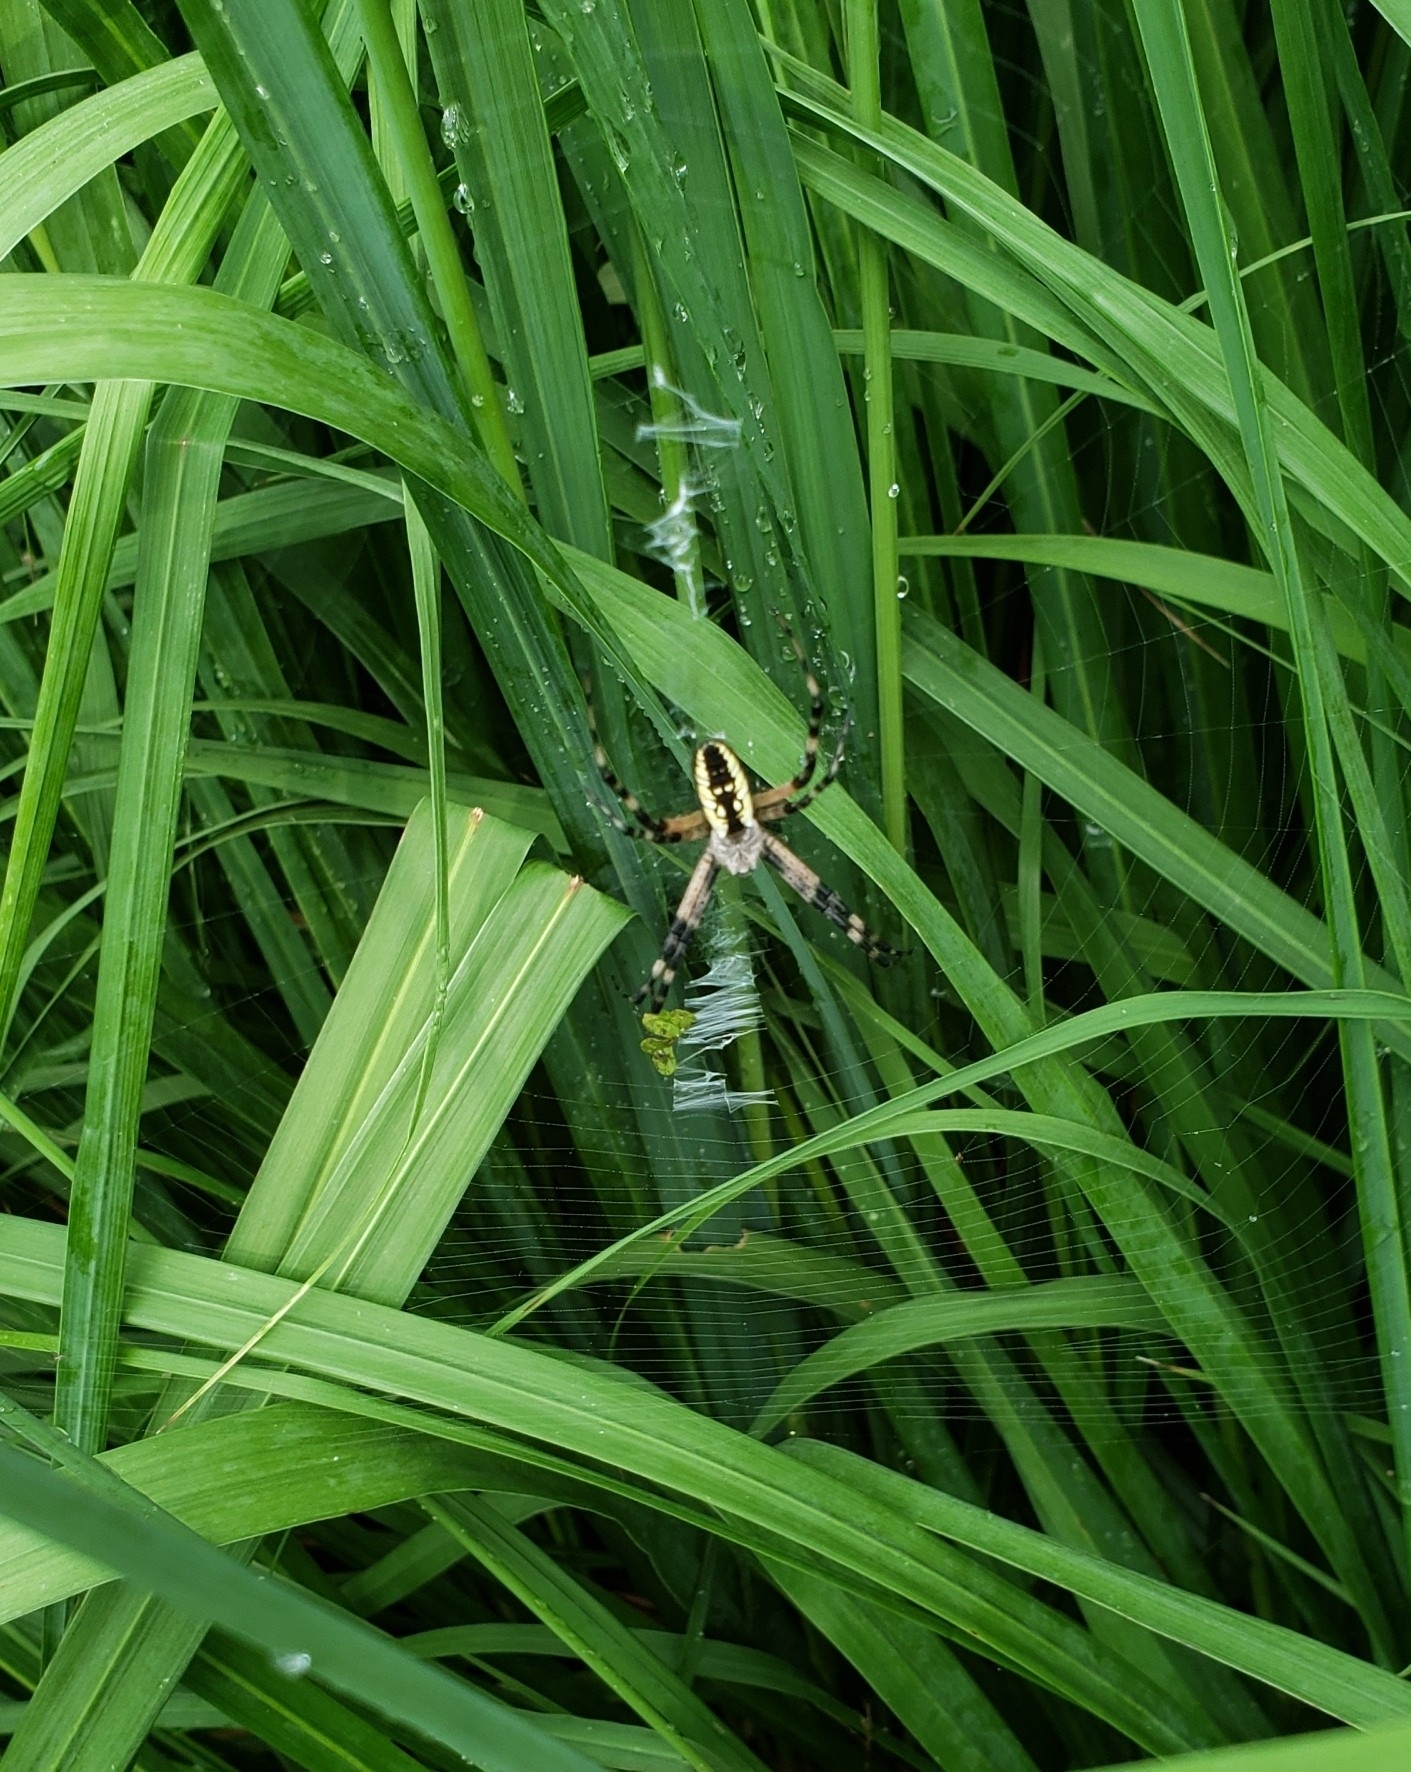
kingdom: Animalia
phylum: Arthropoda
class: Arachnida
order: Araneae
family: Araneidae
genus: Argiope
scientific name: Argiope aurantia
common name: Orb weavers
